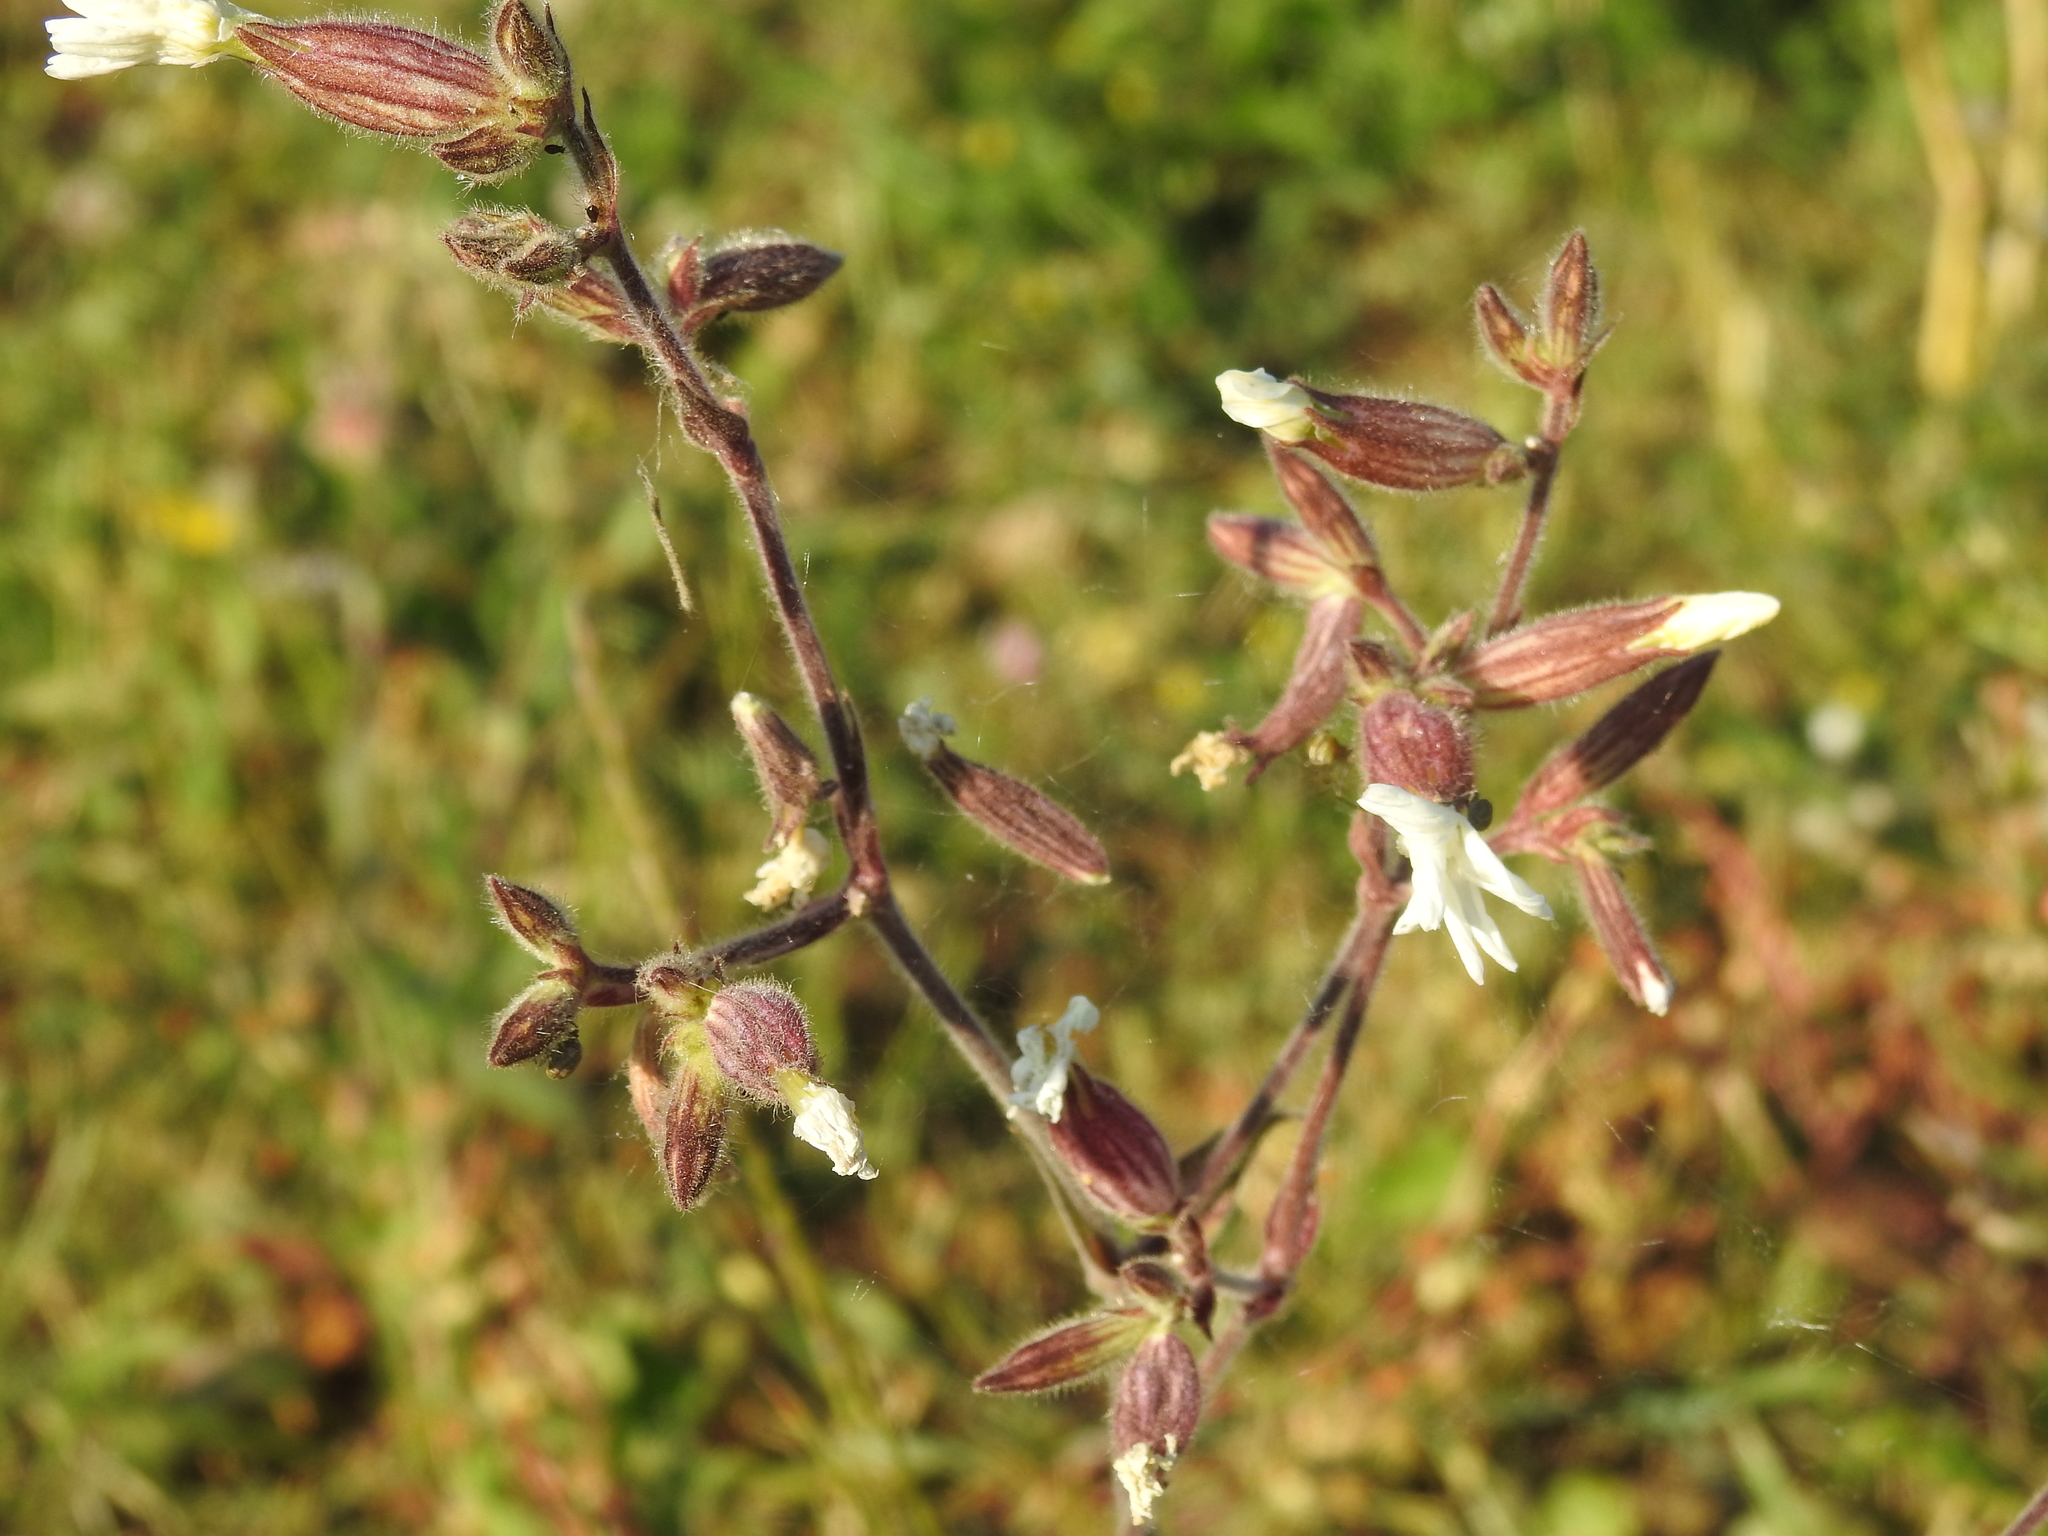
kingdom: Plantae
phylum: Tracheophyta
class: Magnoliopsida
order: Caryophyllales
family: Caryophyllaceae
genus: Silene
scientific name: Silene latifolia
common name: White campion
